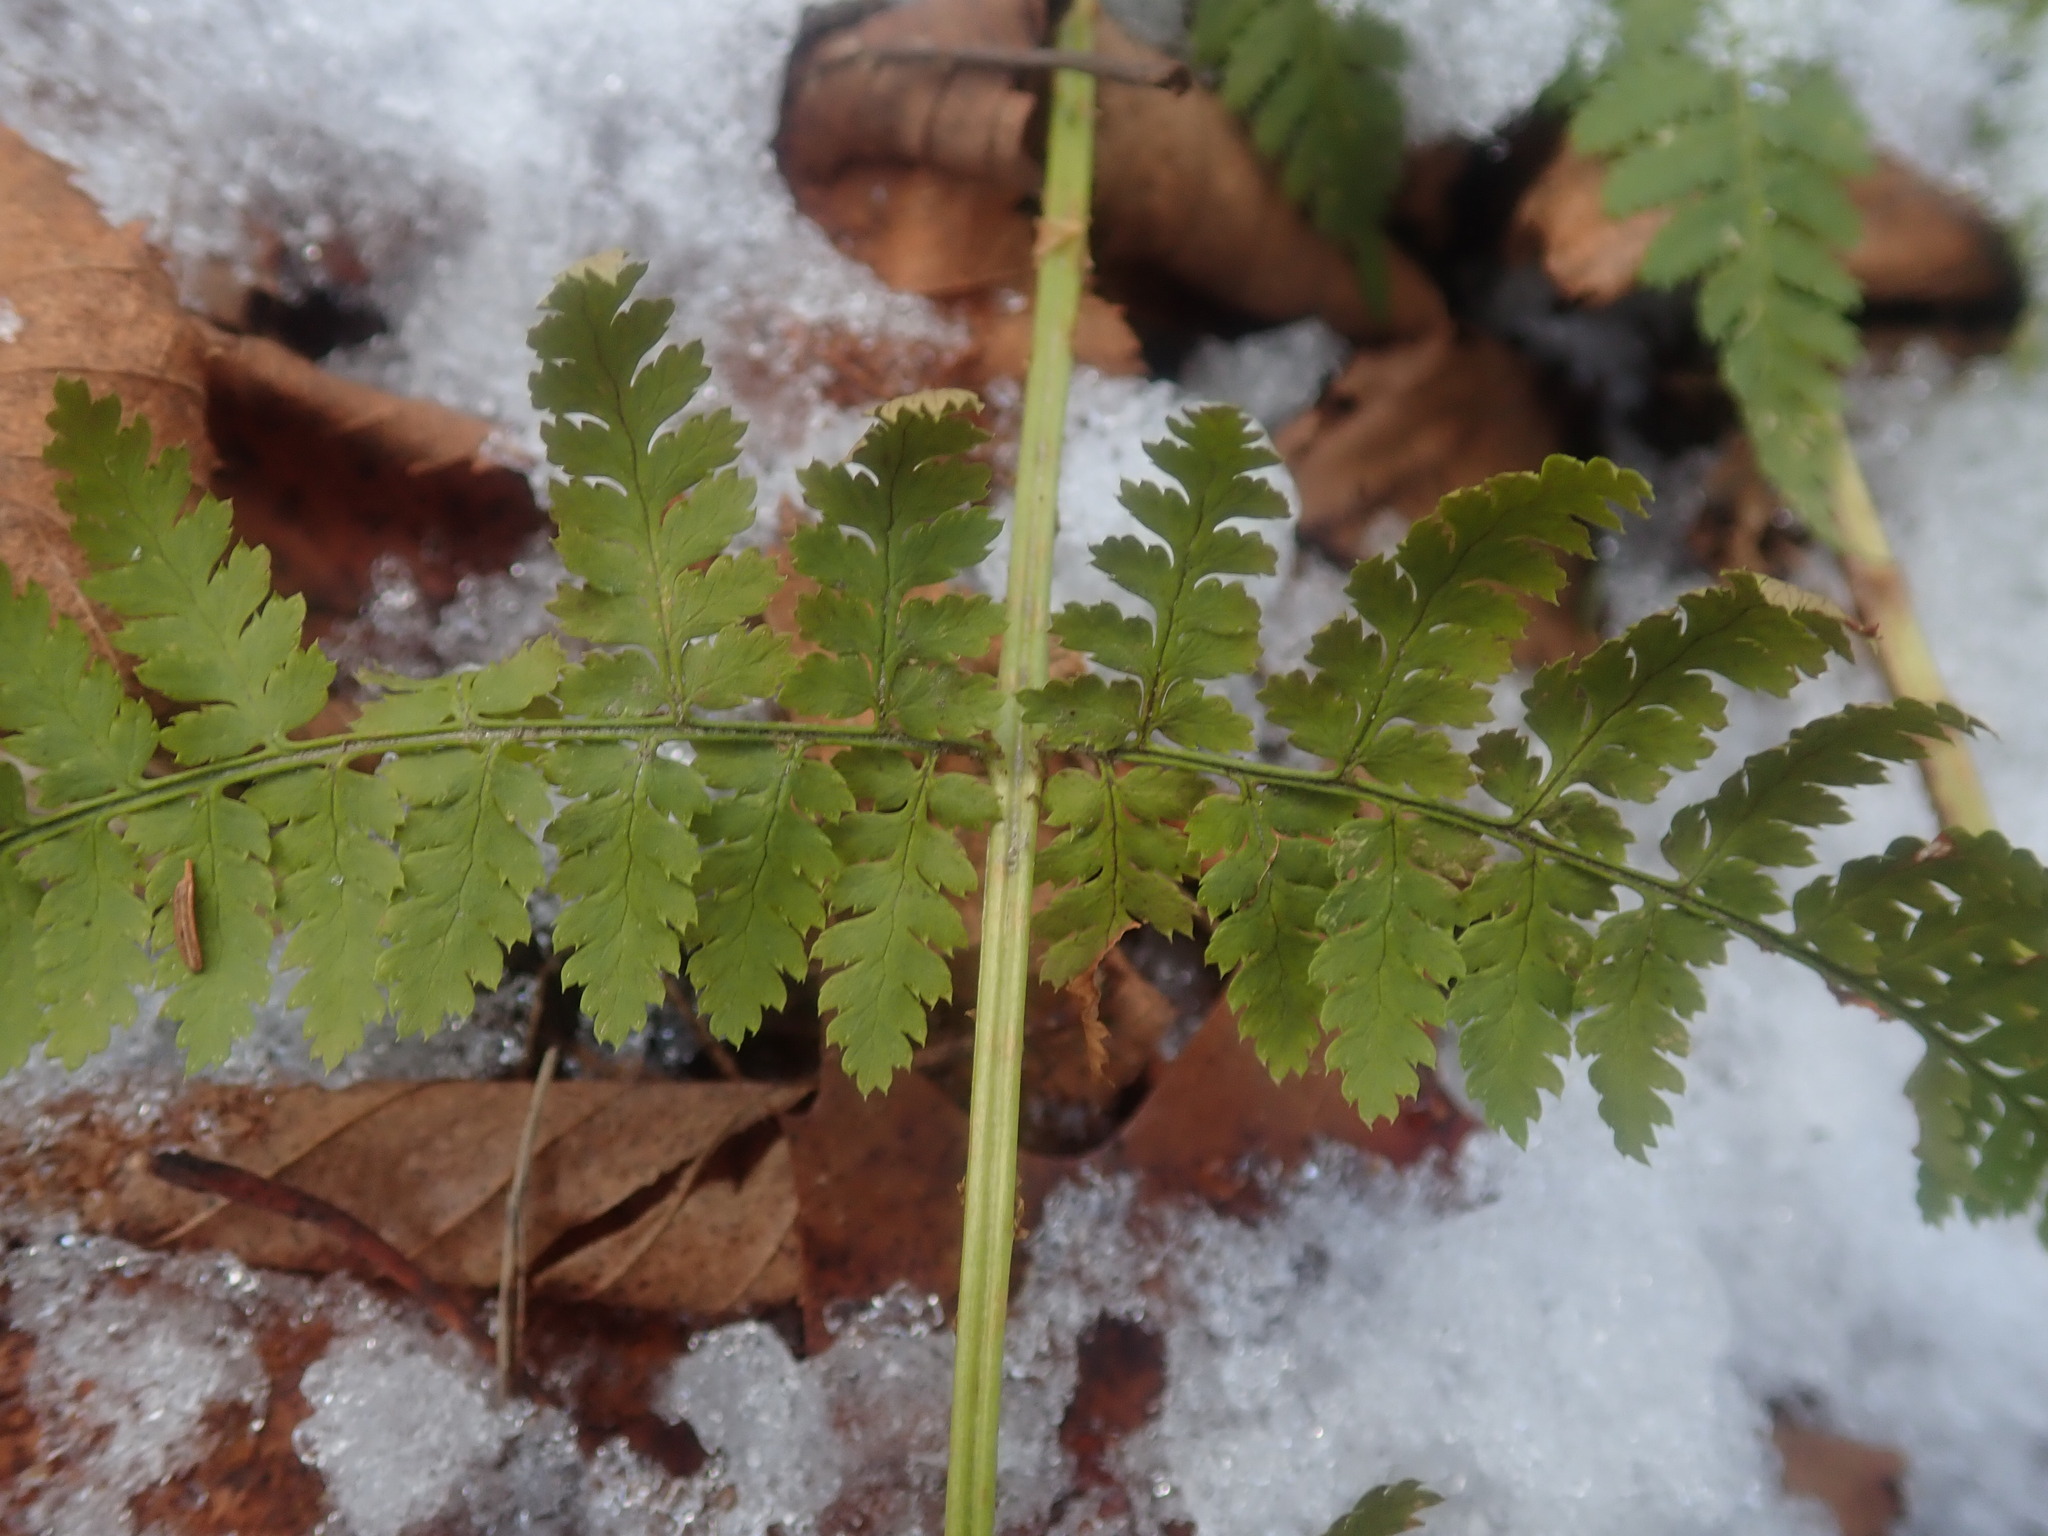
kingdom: Plantae
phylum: Tracheophyta
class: Polypodiopsida
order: Polypodiales
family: Dryopteridaceae
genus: Dryopteris
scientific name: Dryopteris intermedia
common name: Evergreen wood fern
